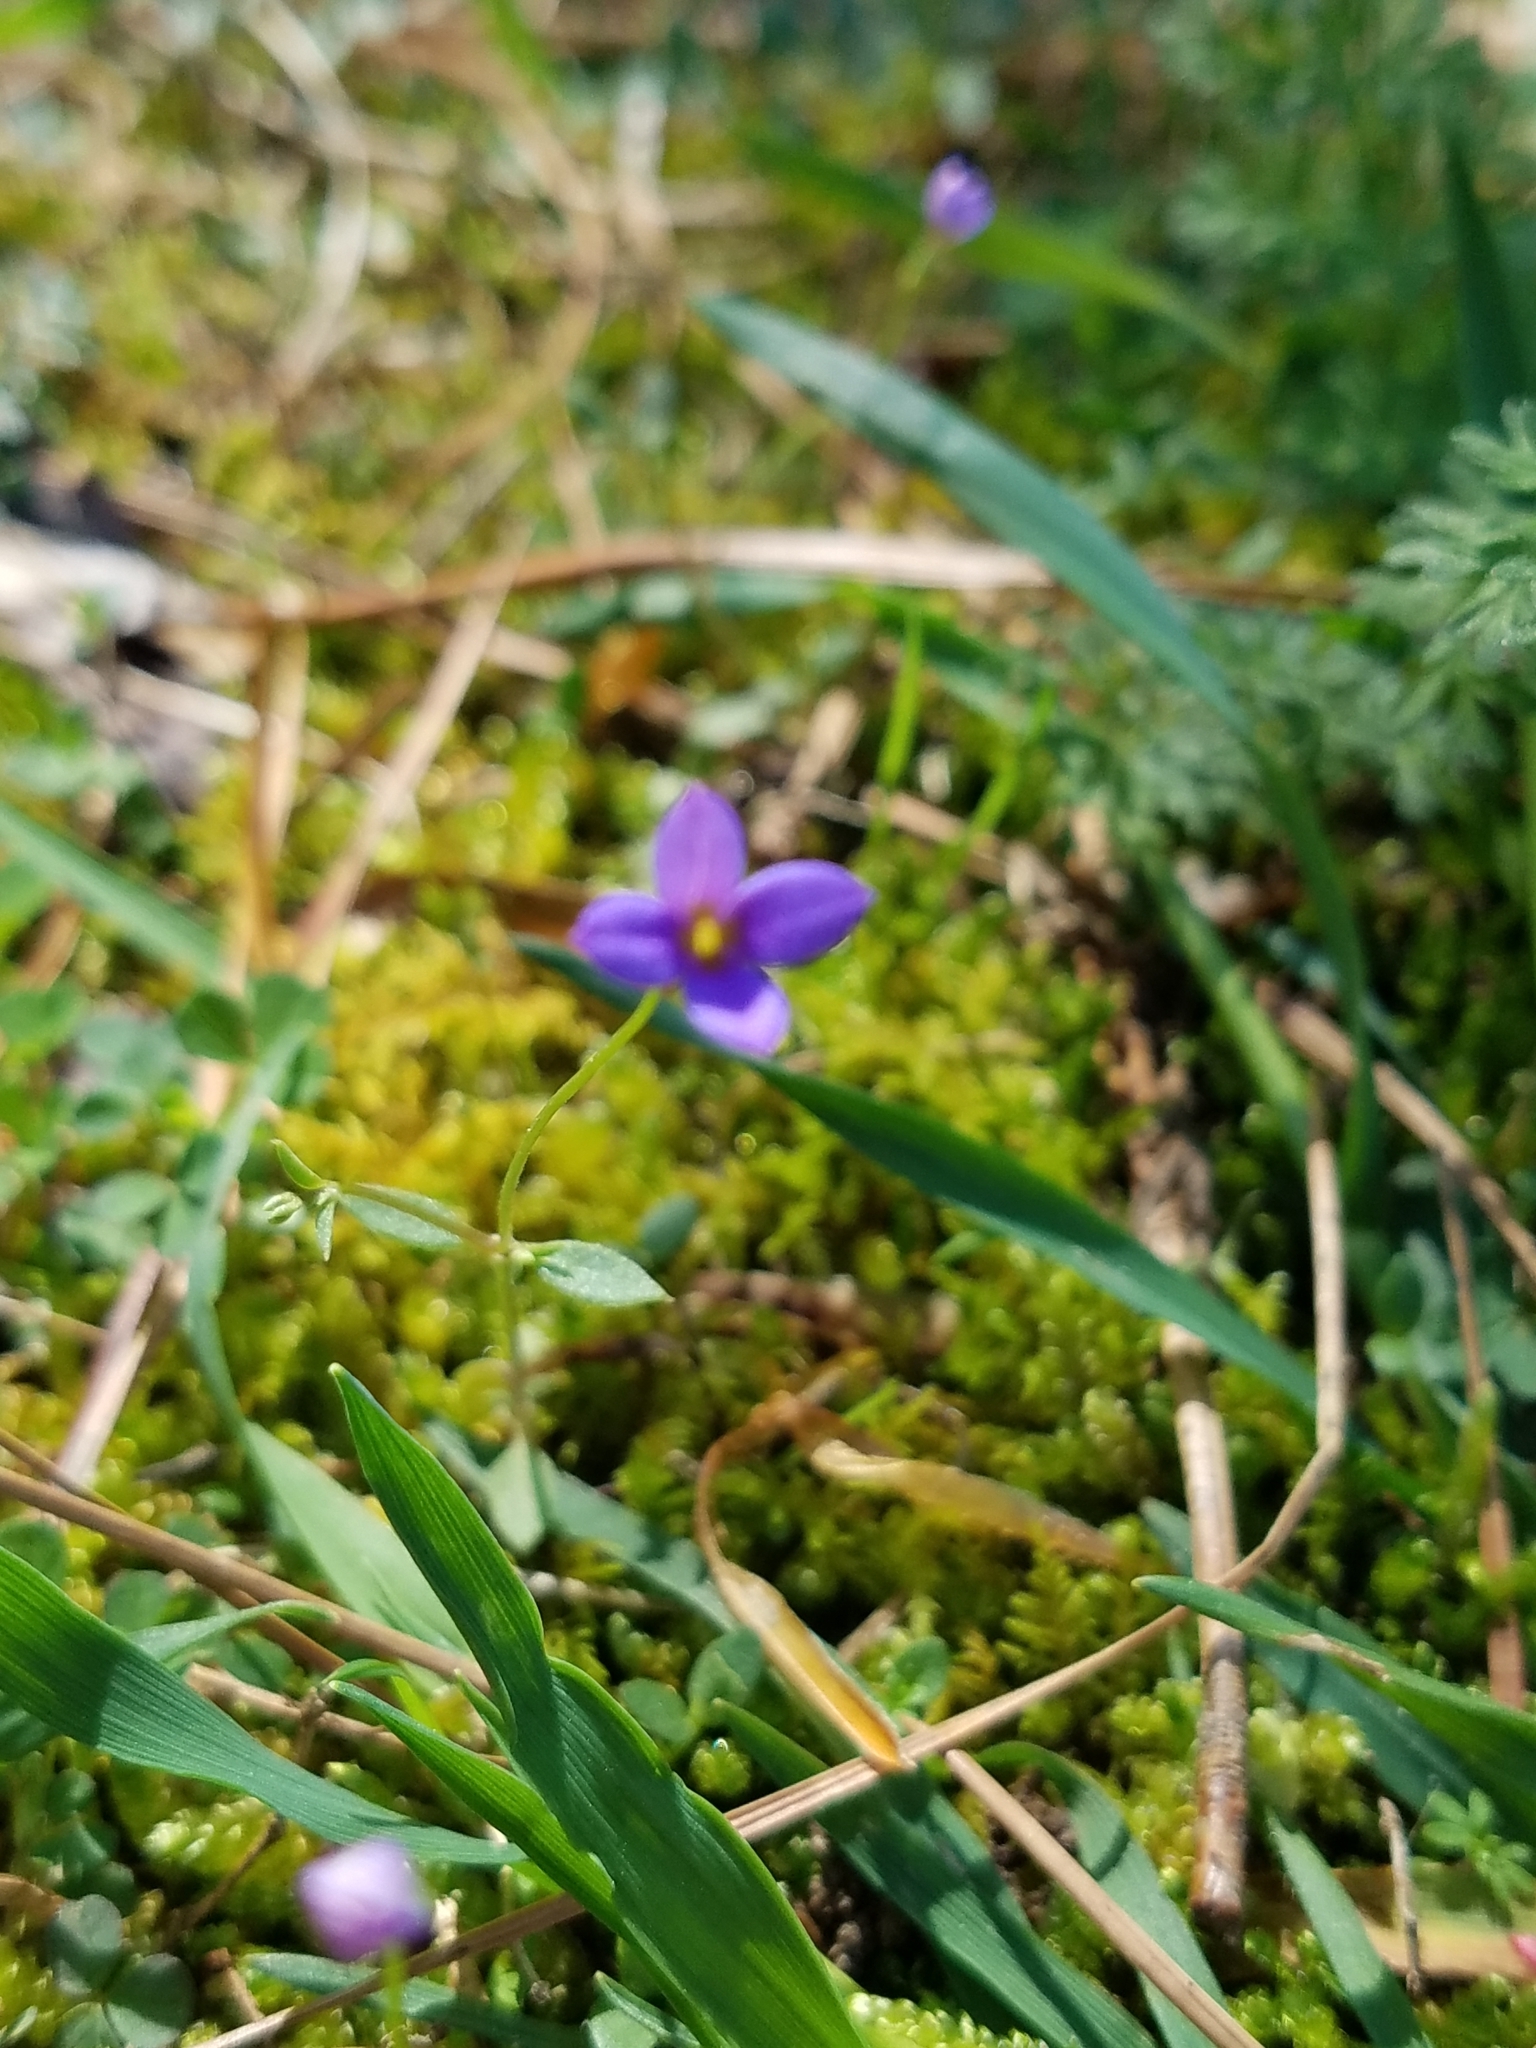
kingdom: Plantae
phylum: Tracheophyta
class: Magnoliopsida
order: Gentianales
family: Rubiaceae
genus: Houstonia
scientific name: Houstonia pusilla
